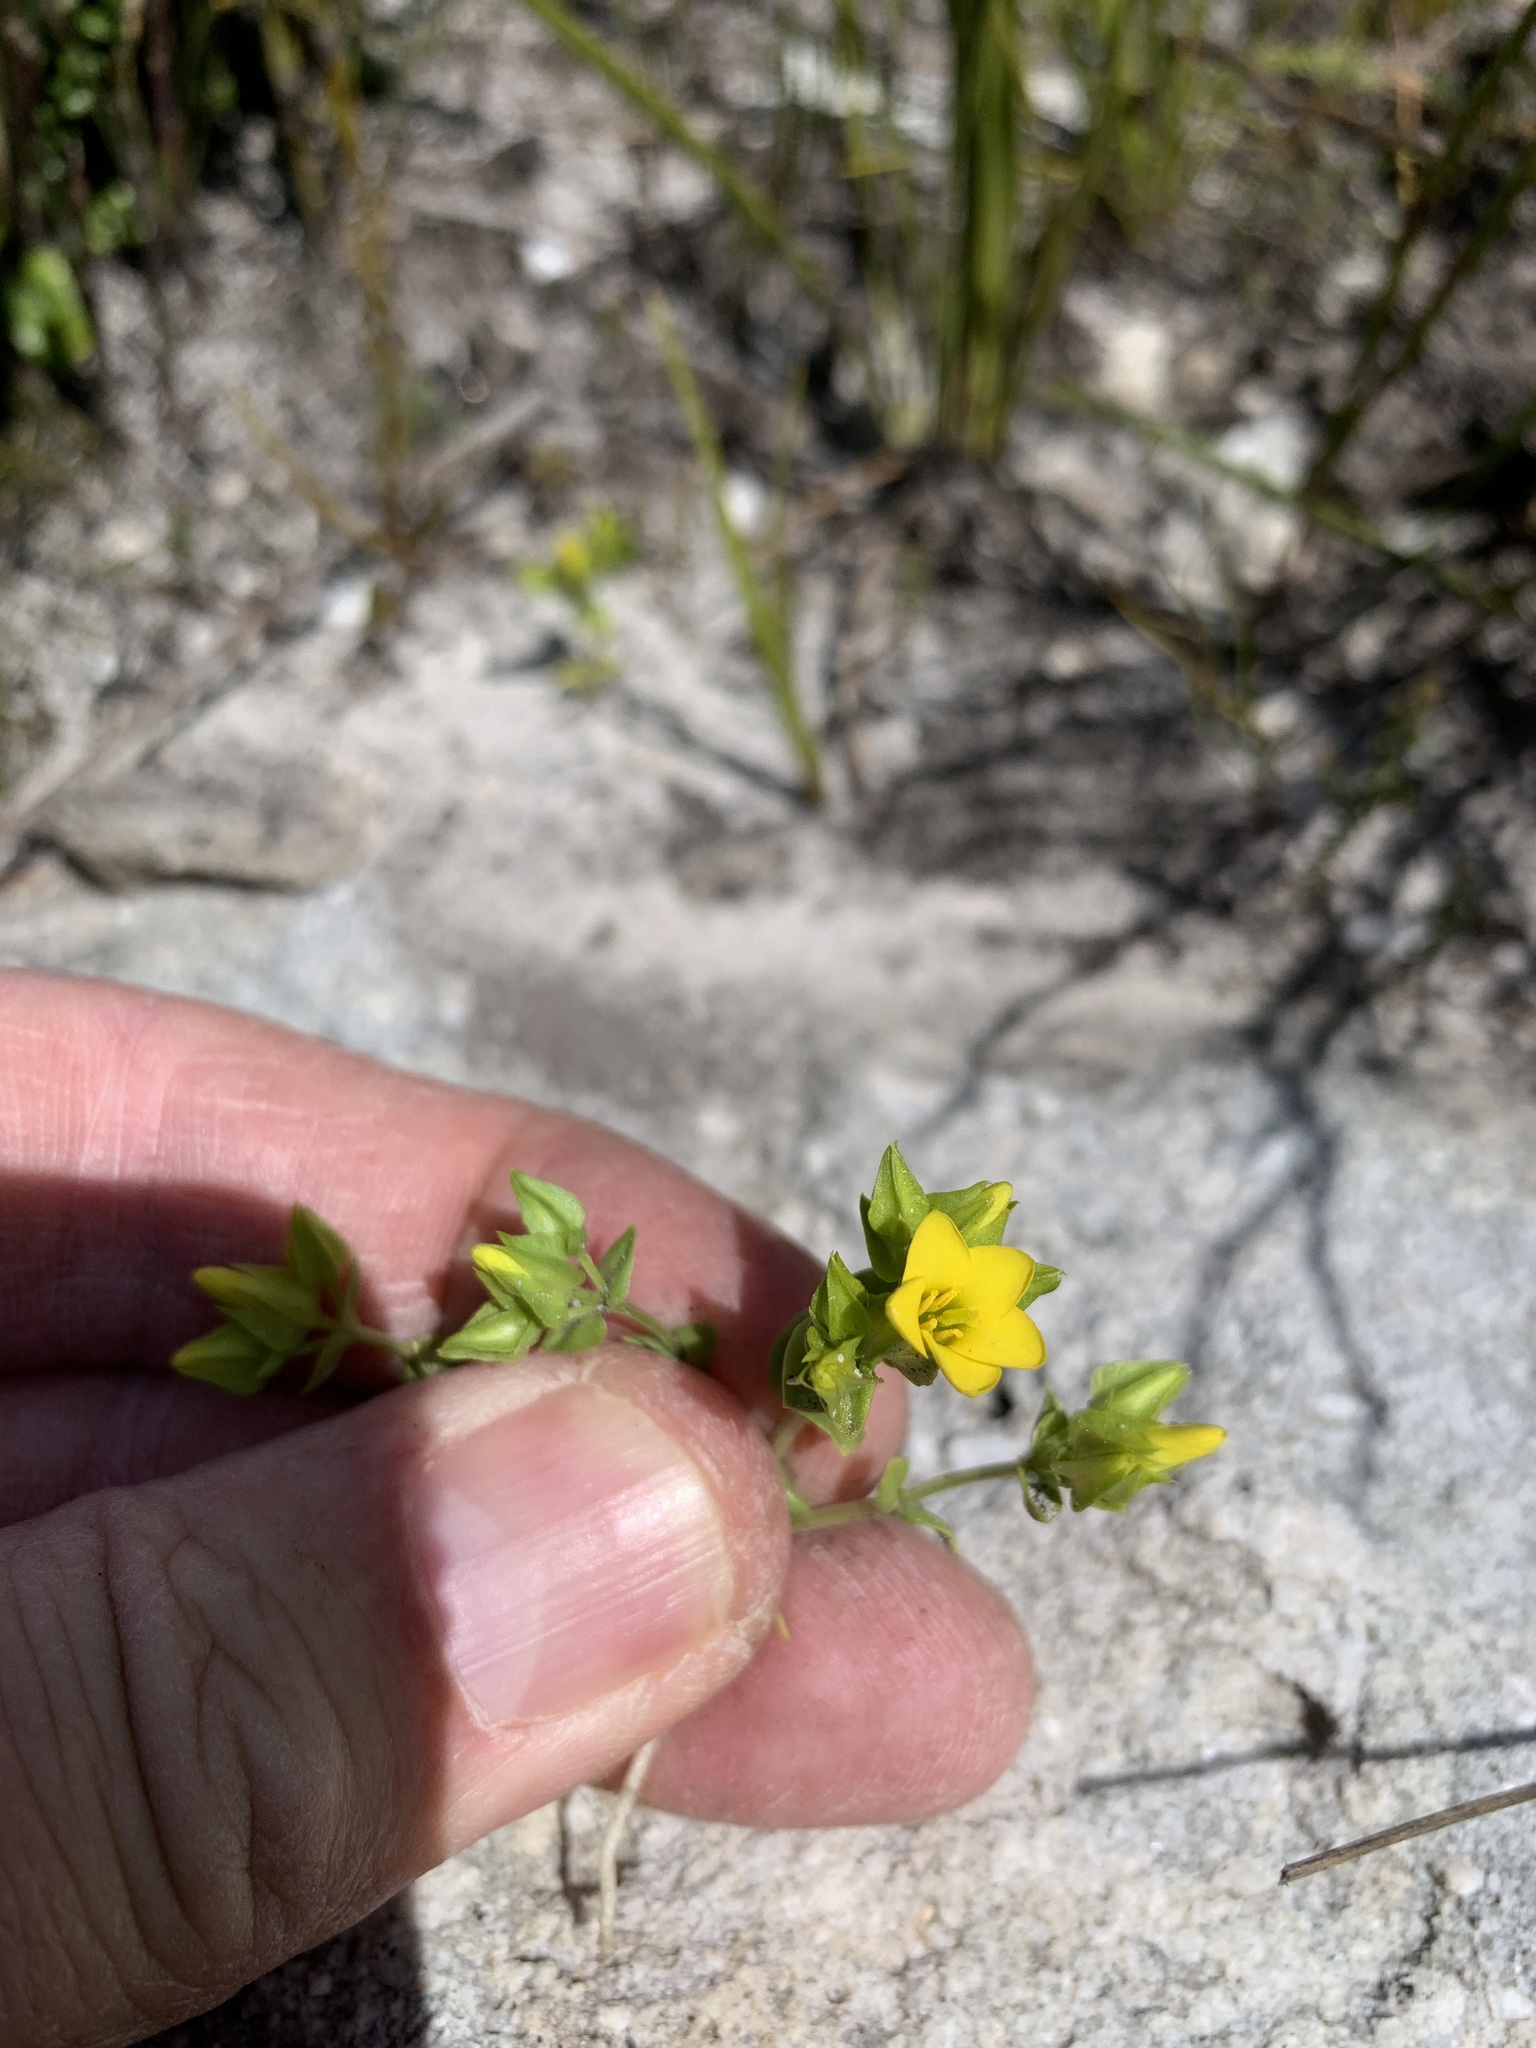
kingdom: Plantae
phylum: Tracheophyta
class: Magnoliopsida
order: Gentianales
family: Gentianaceae
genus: Sebaea
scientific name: Sebaea micrantha
